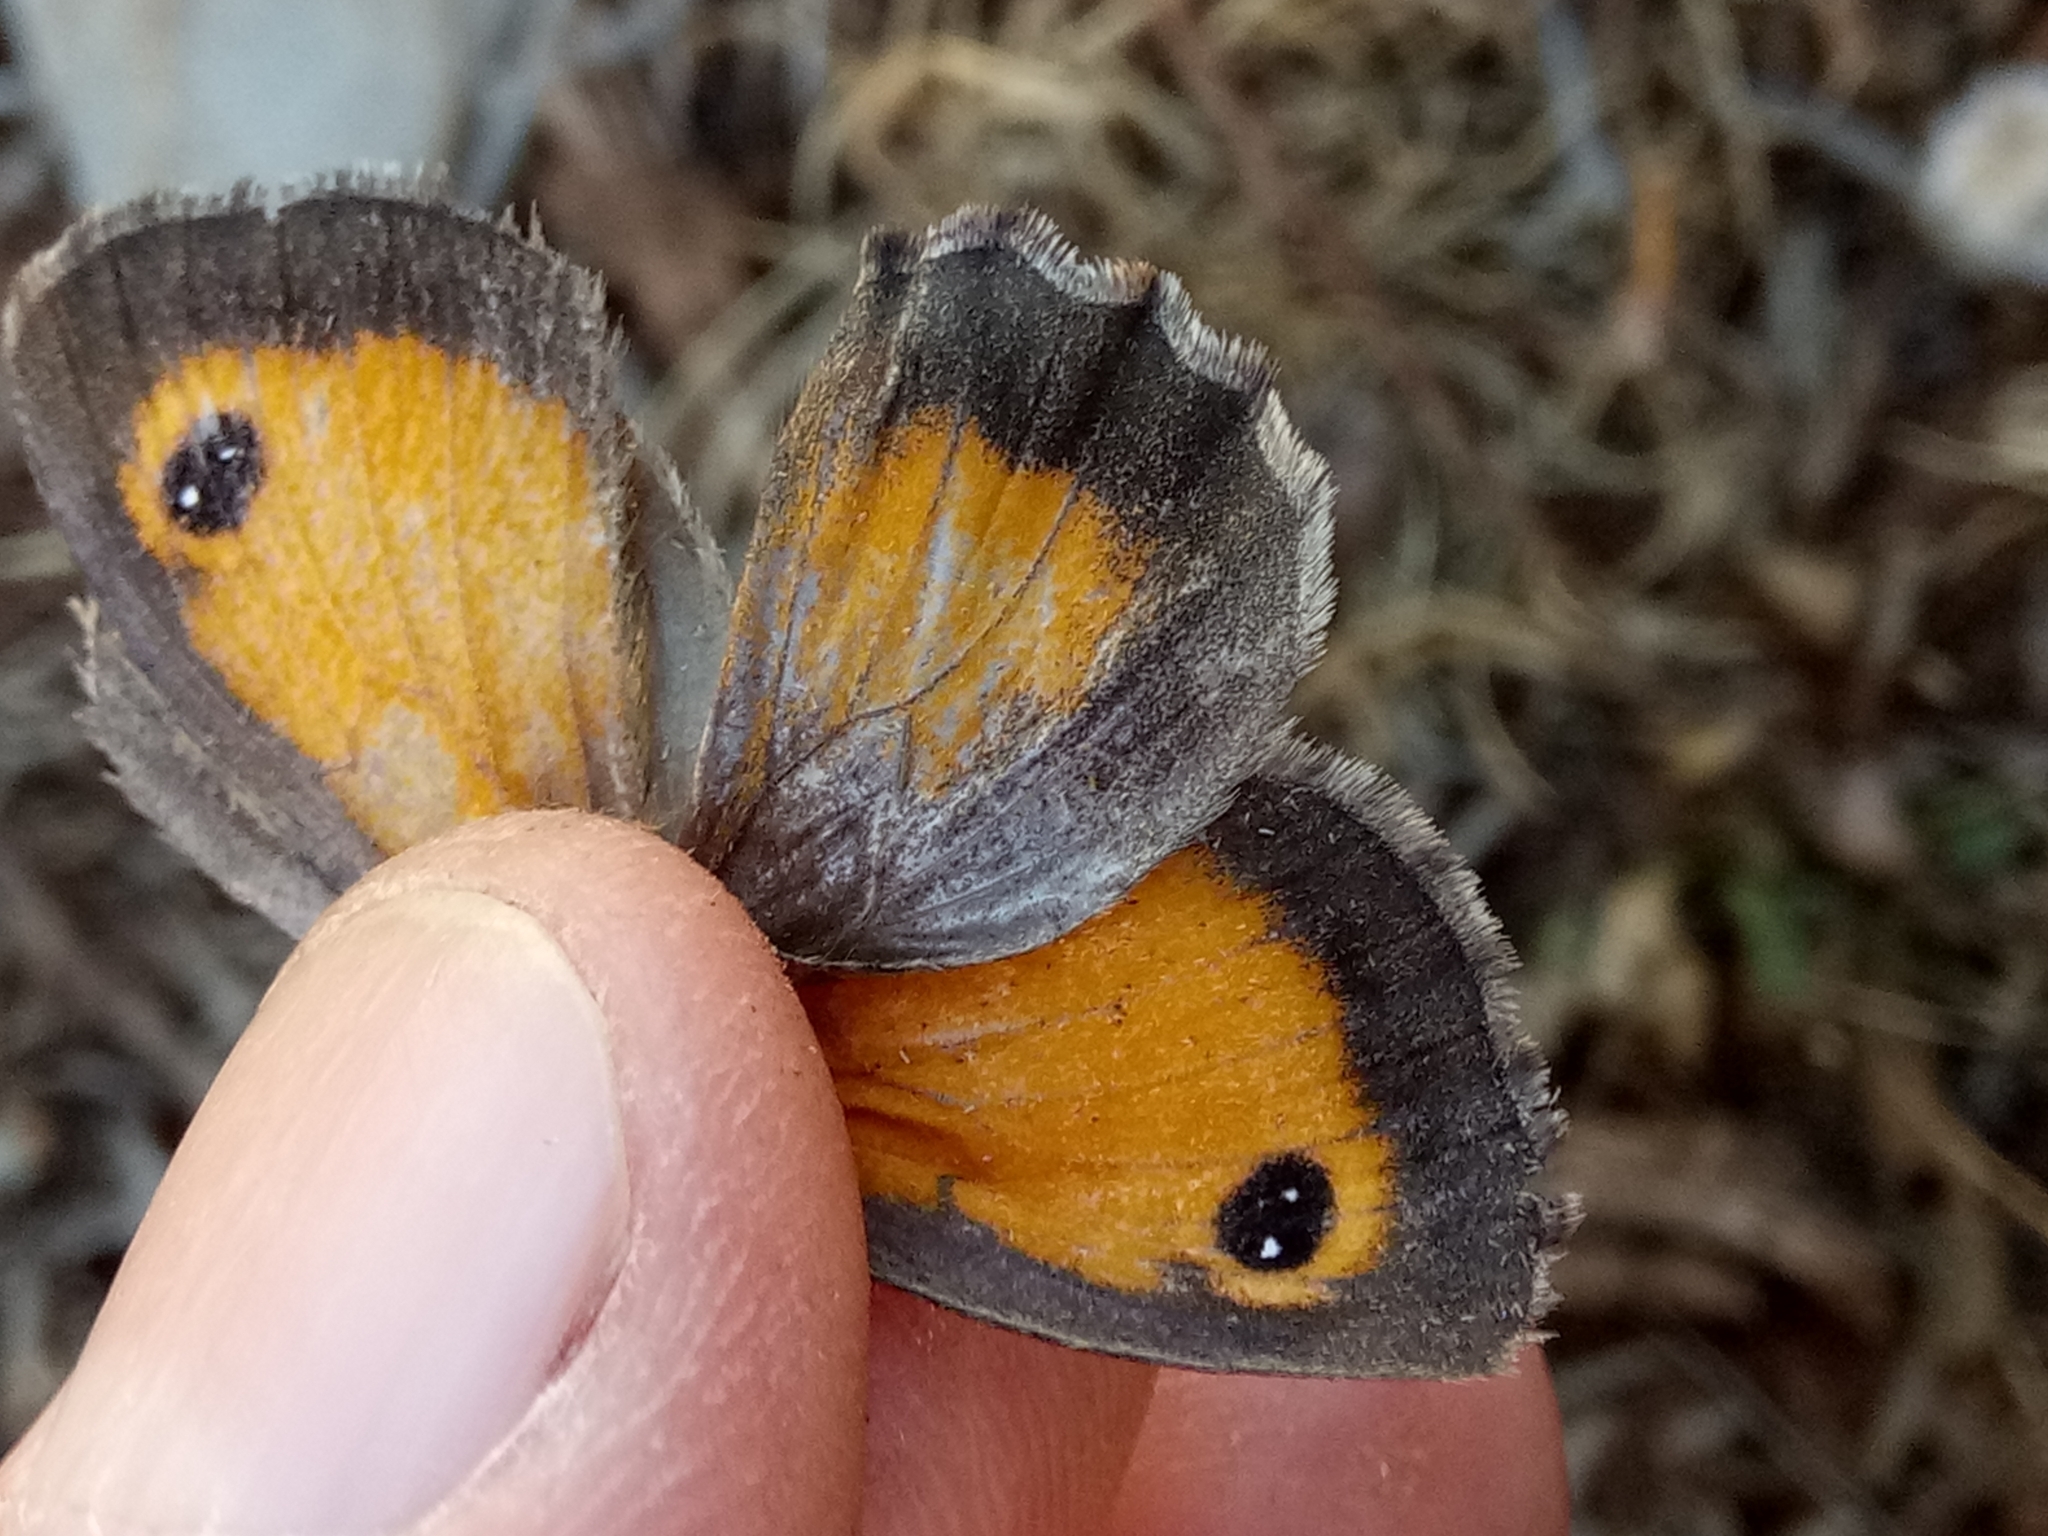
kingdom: Animalia
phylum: Arthropoda
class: Insecta
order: Lepidoptera
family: Nymphalidae
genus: Pyronia
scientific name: Pyronia cecilia
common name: Southern gatekeeper
